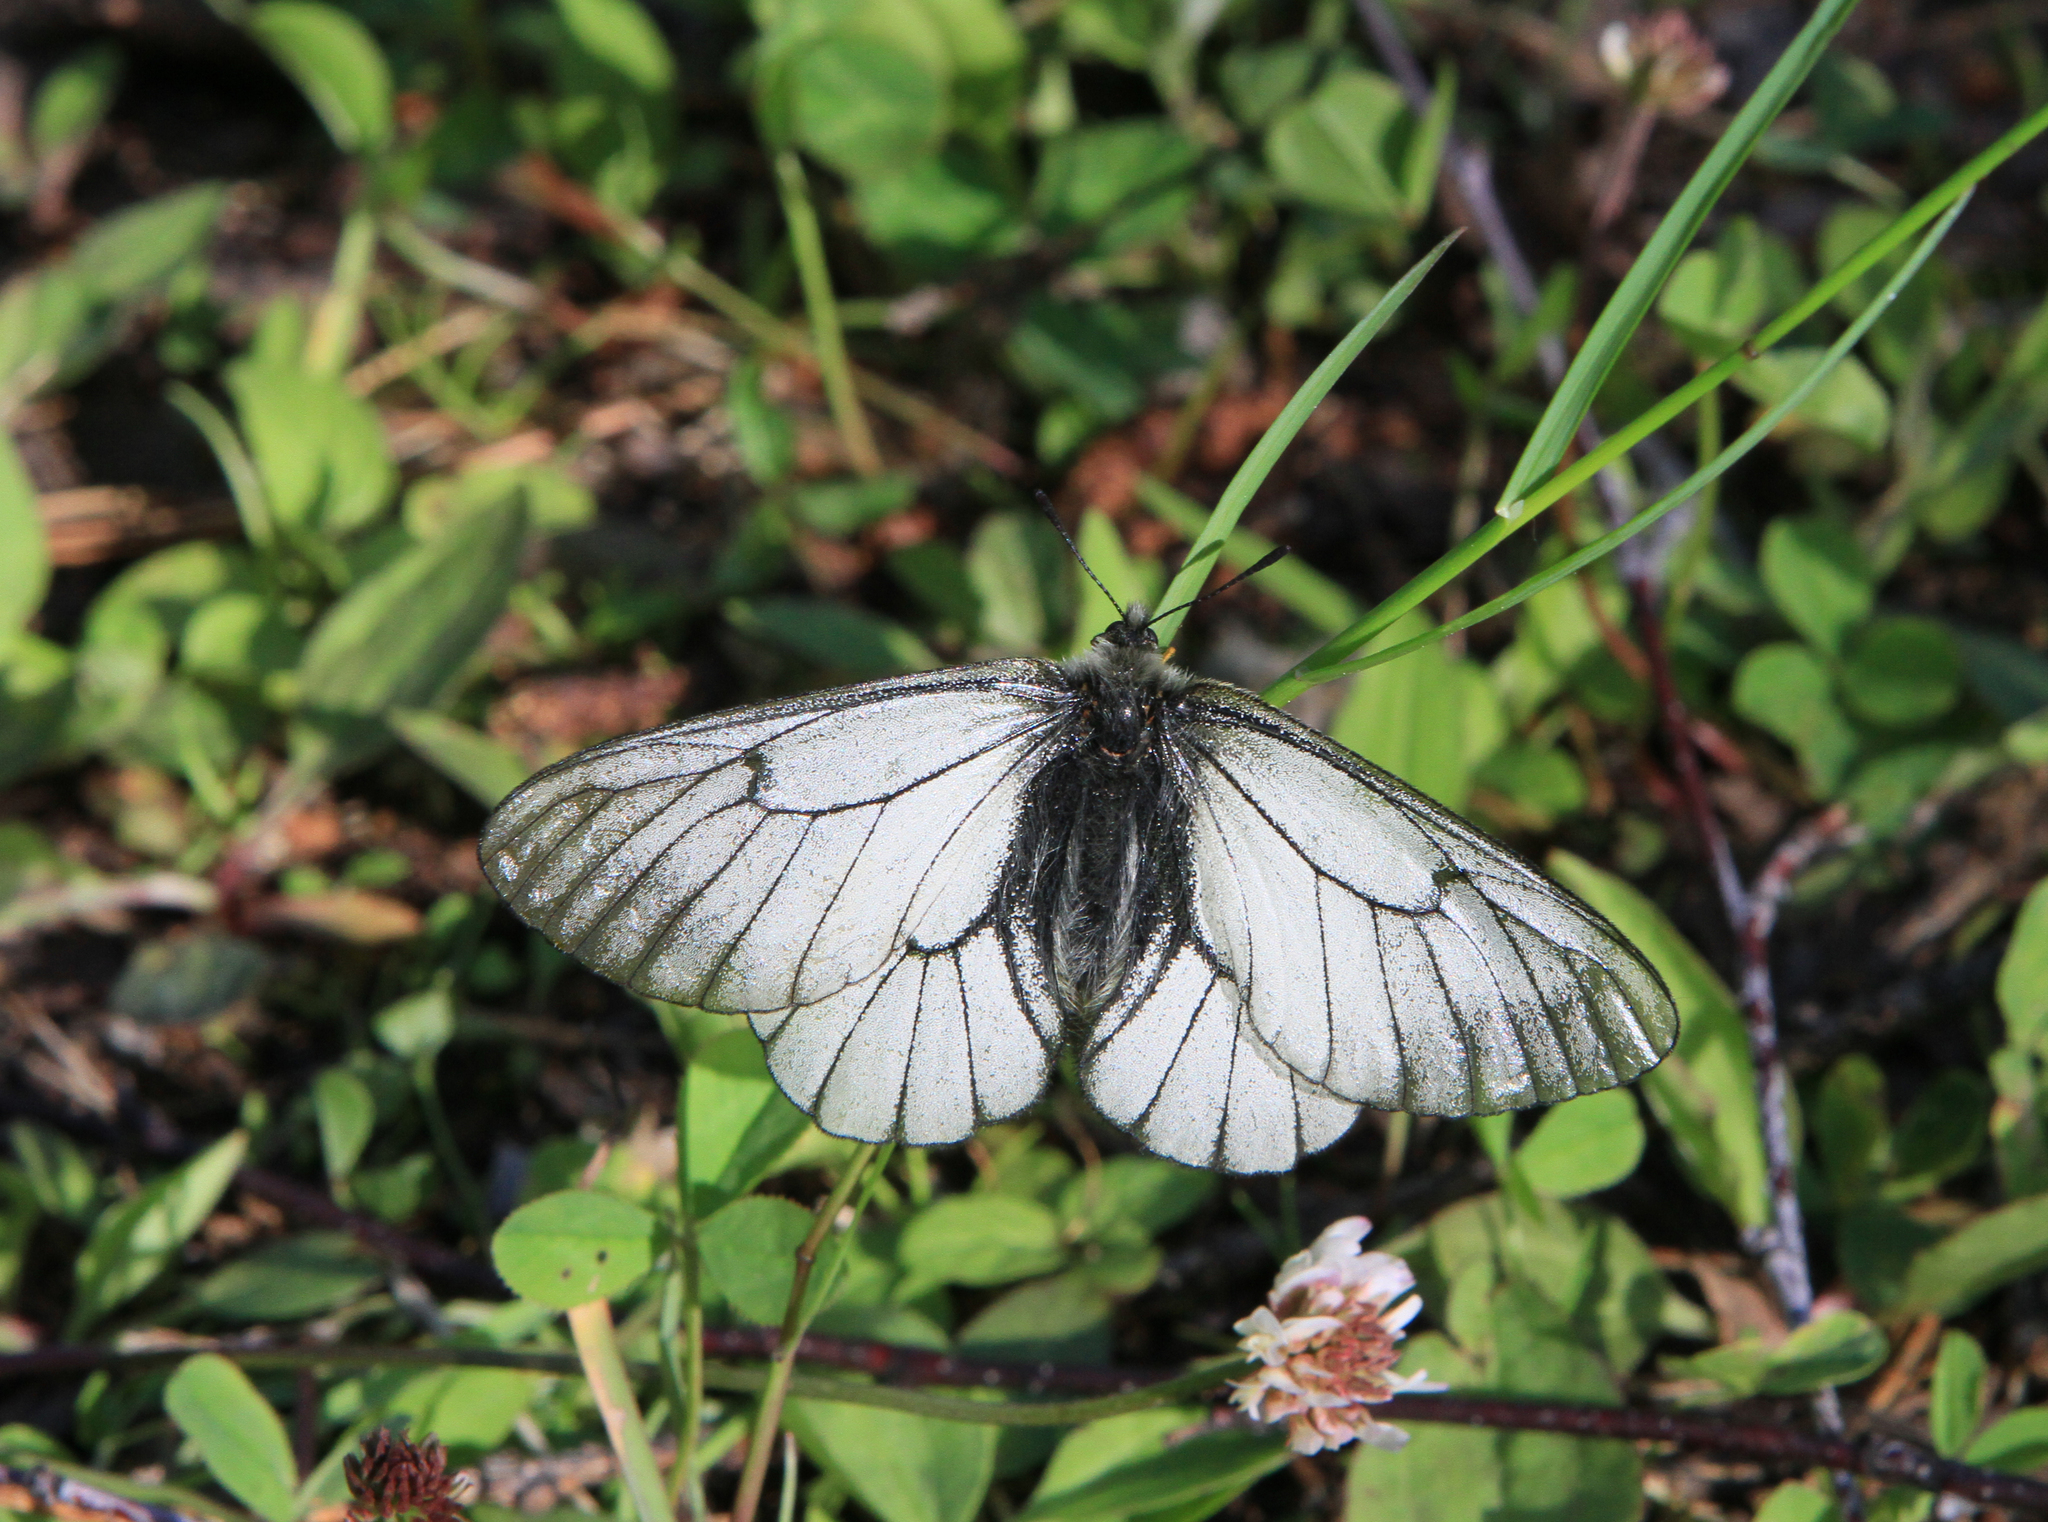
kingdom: Animalia
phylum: Arthropoda
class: Insecta
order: Lepidoptera
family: Papilionidae
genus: Parnassius
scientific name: Parnassius stubbendorfii
